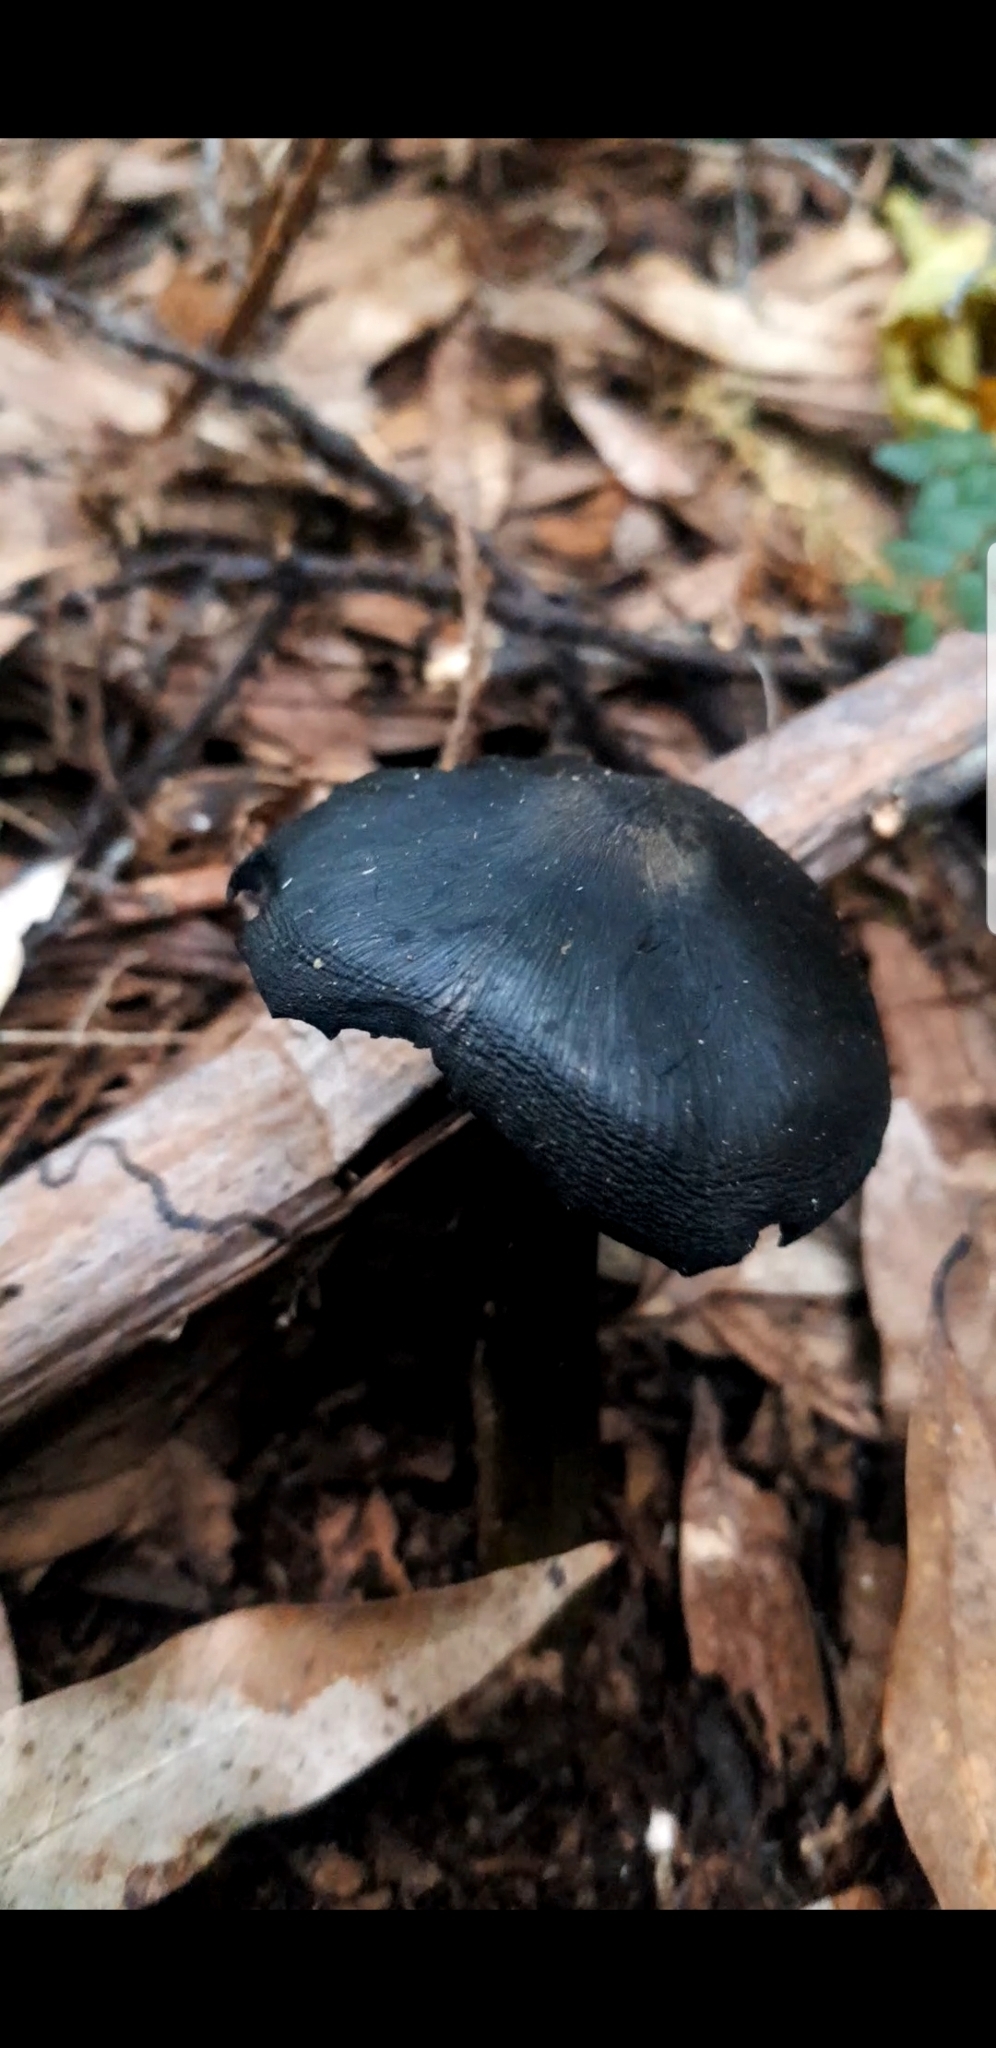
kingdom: Fungi
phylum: Basidiomycota
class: Agaricomycetes
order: Agaricales
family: Hygrophoraceae
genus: Hygrocybe
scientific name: Hygrocybe astatogala
